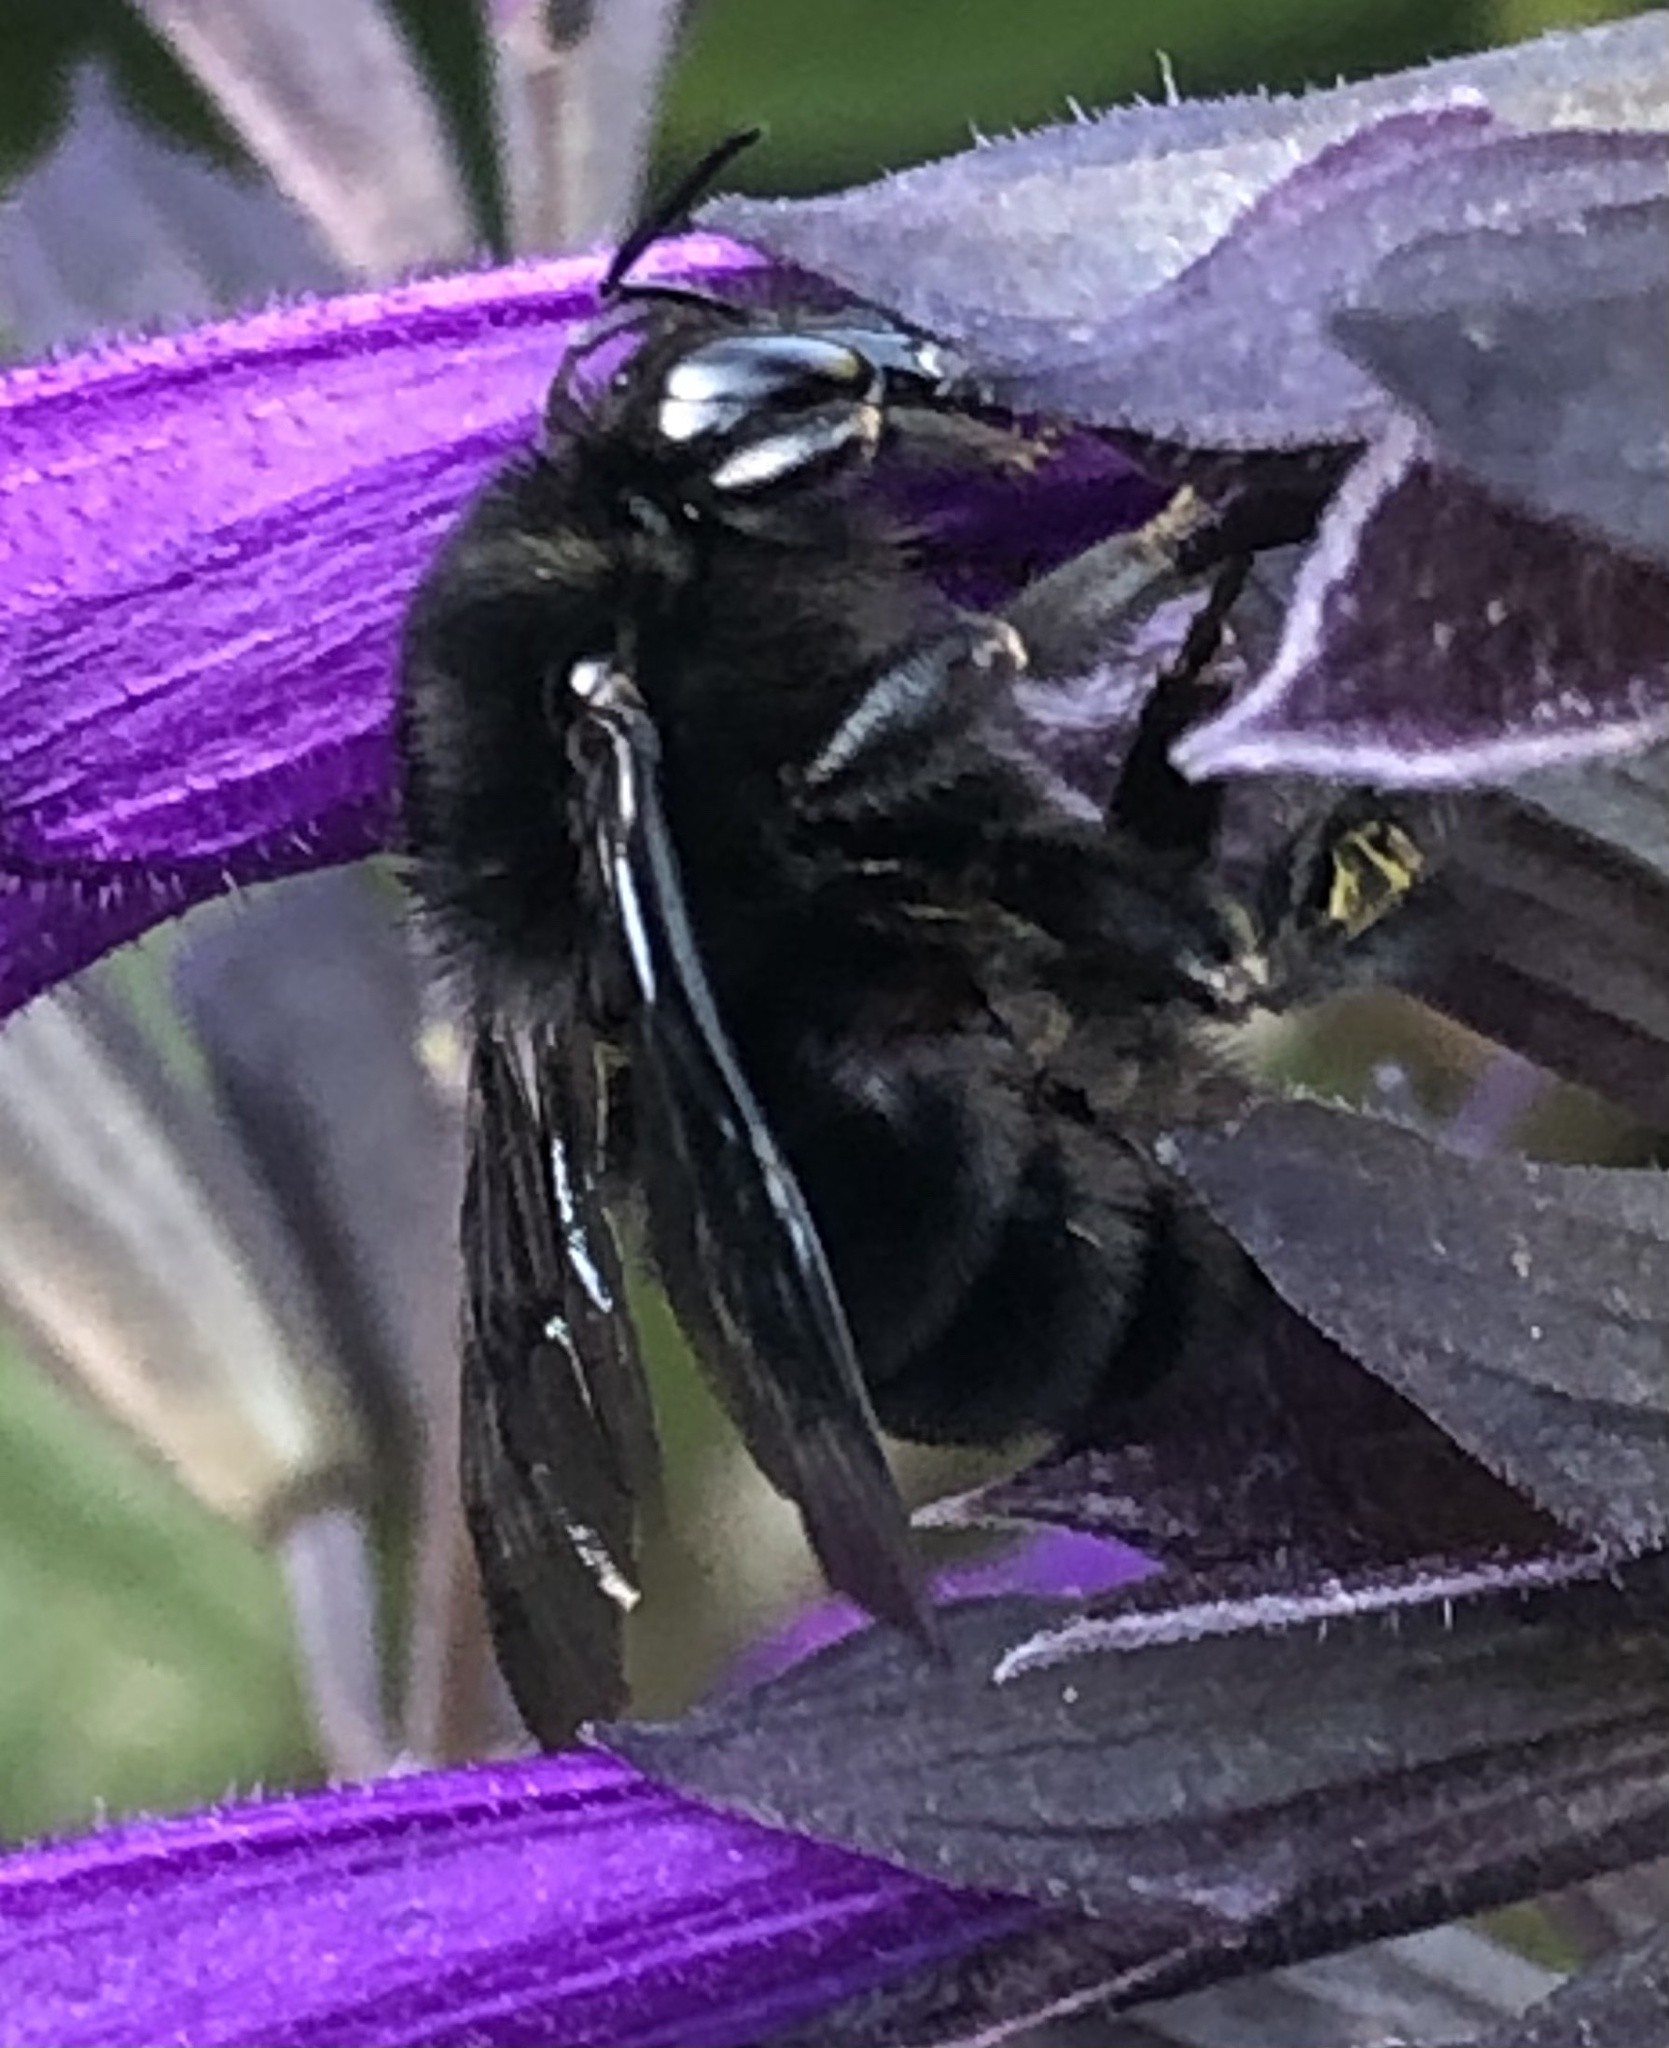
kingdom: Animalia
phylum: Arthropoda
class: Insecta
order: Hymenoptera
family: Apidae
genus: Bombus
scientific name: Bombus pauloensis
